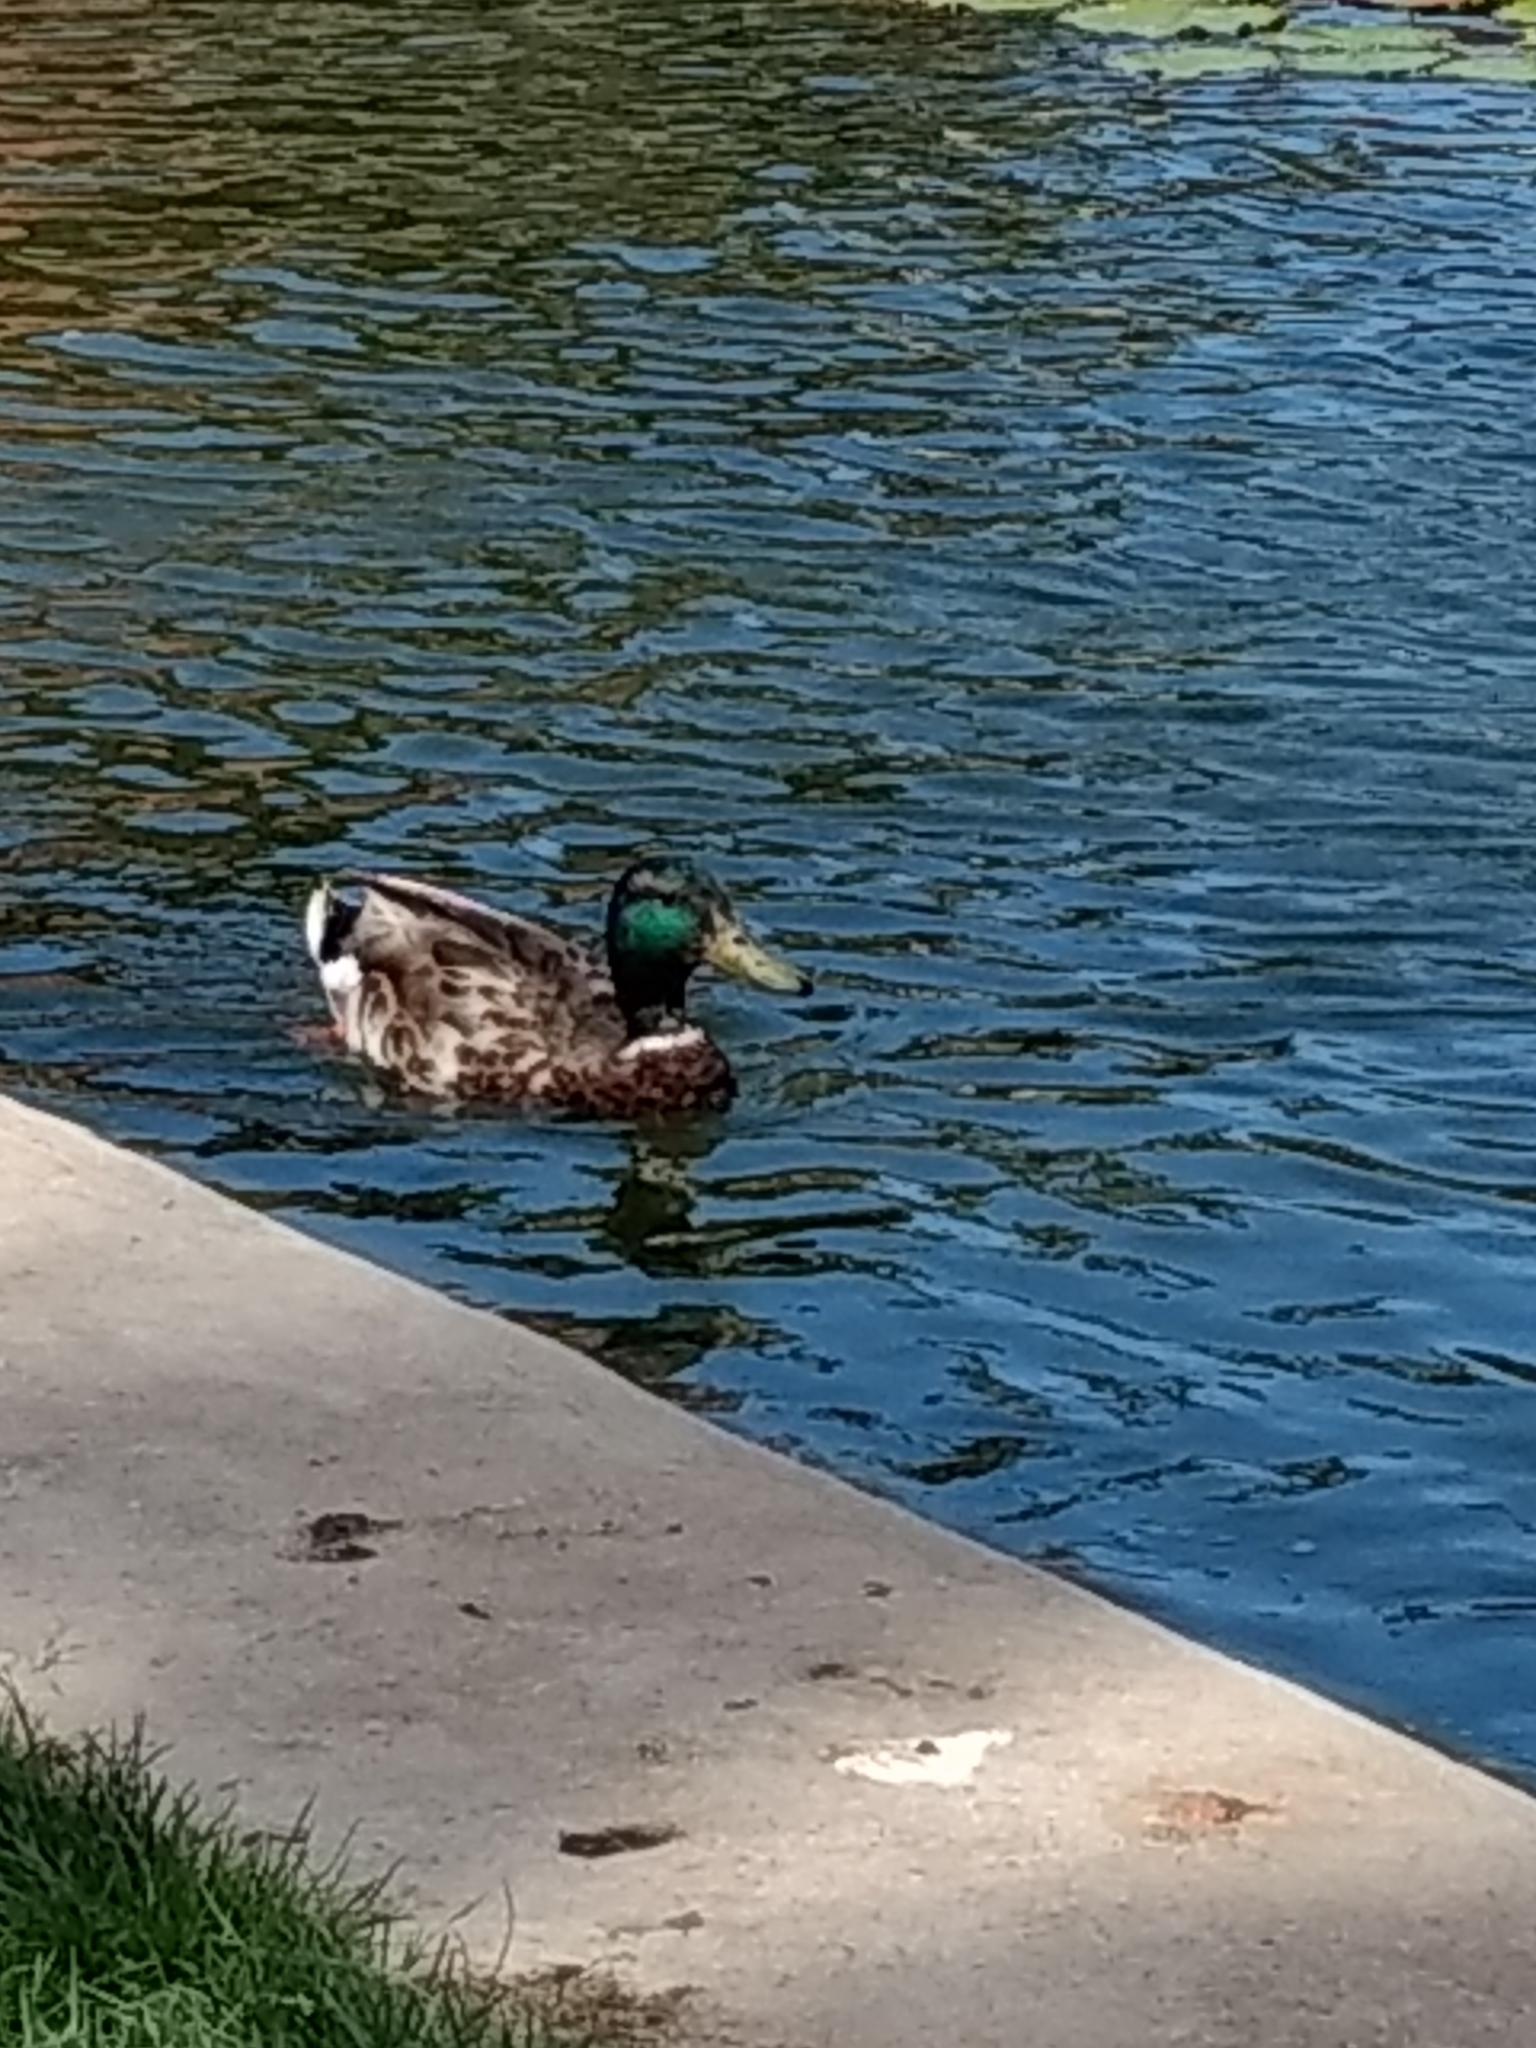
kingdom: Animalia
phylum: Chordata
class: Aves
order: Anseriformes
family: Anatidae
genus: Anas
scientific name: Anas platyrhynchos
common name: Mallard
